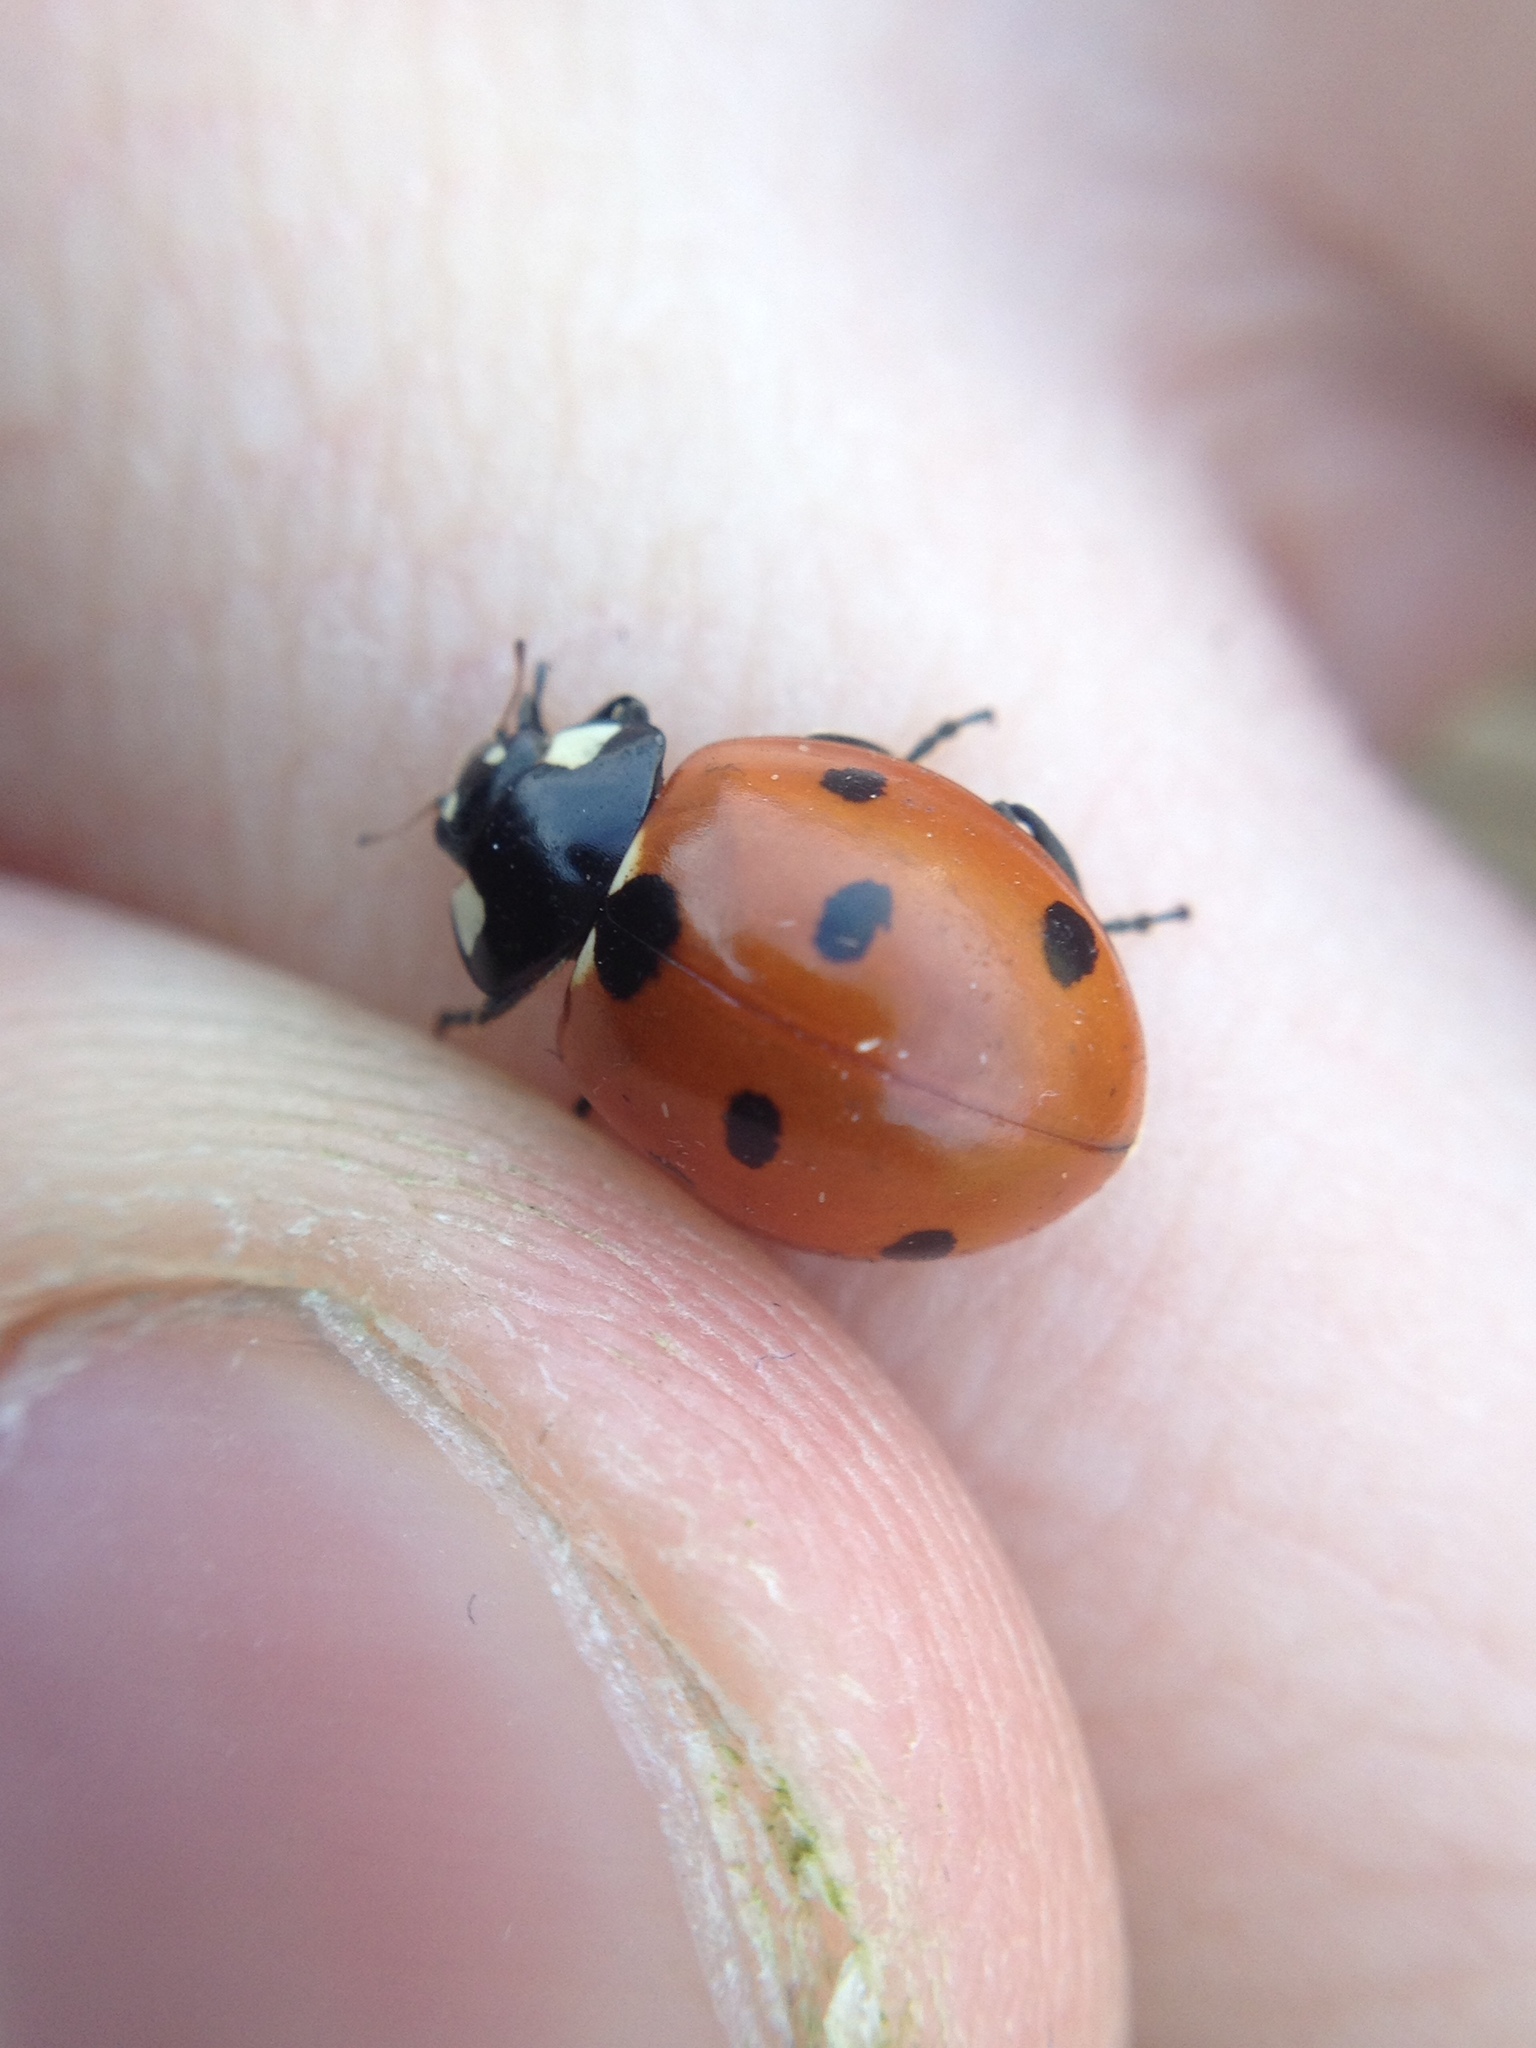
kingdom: Animalia
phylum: Arthropoda
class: Insecta
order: Coleoptera
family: Coccinellidae
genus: Coccinella
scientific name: Coccinella septempunctata
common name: Sevenspotted lady beetle
